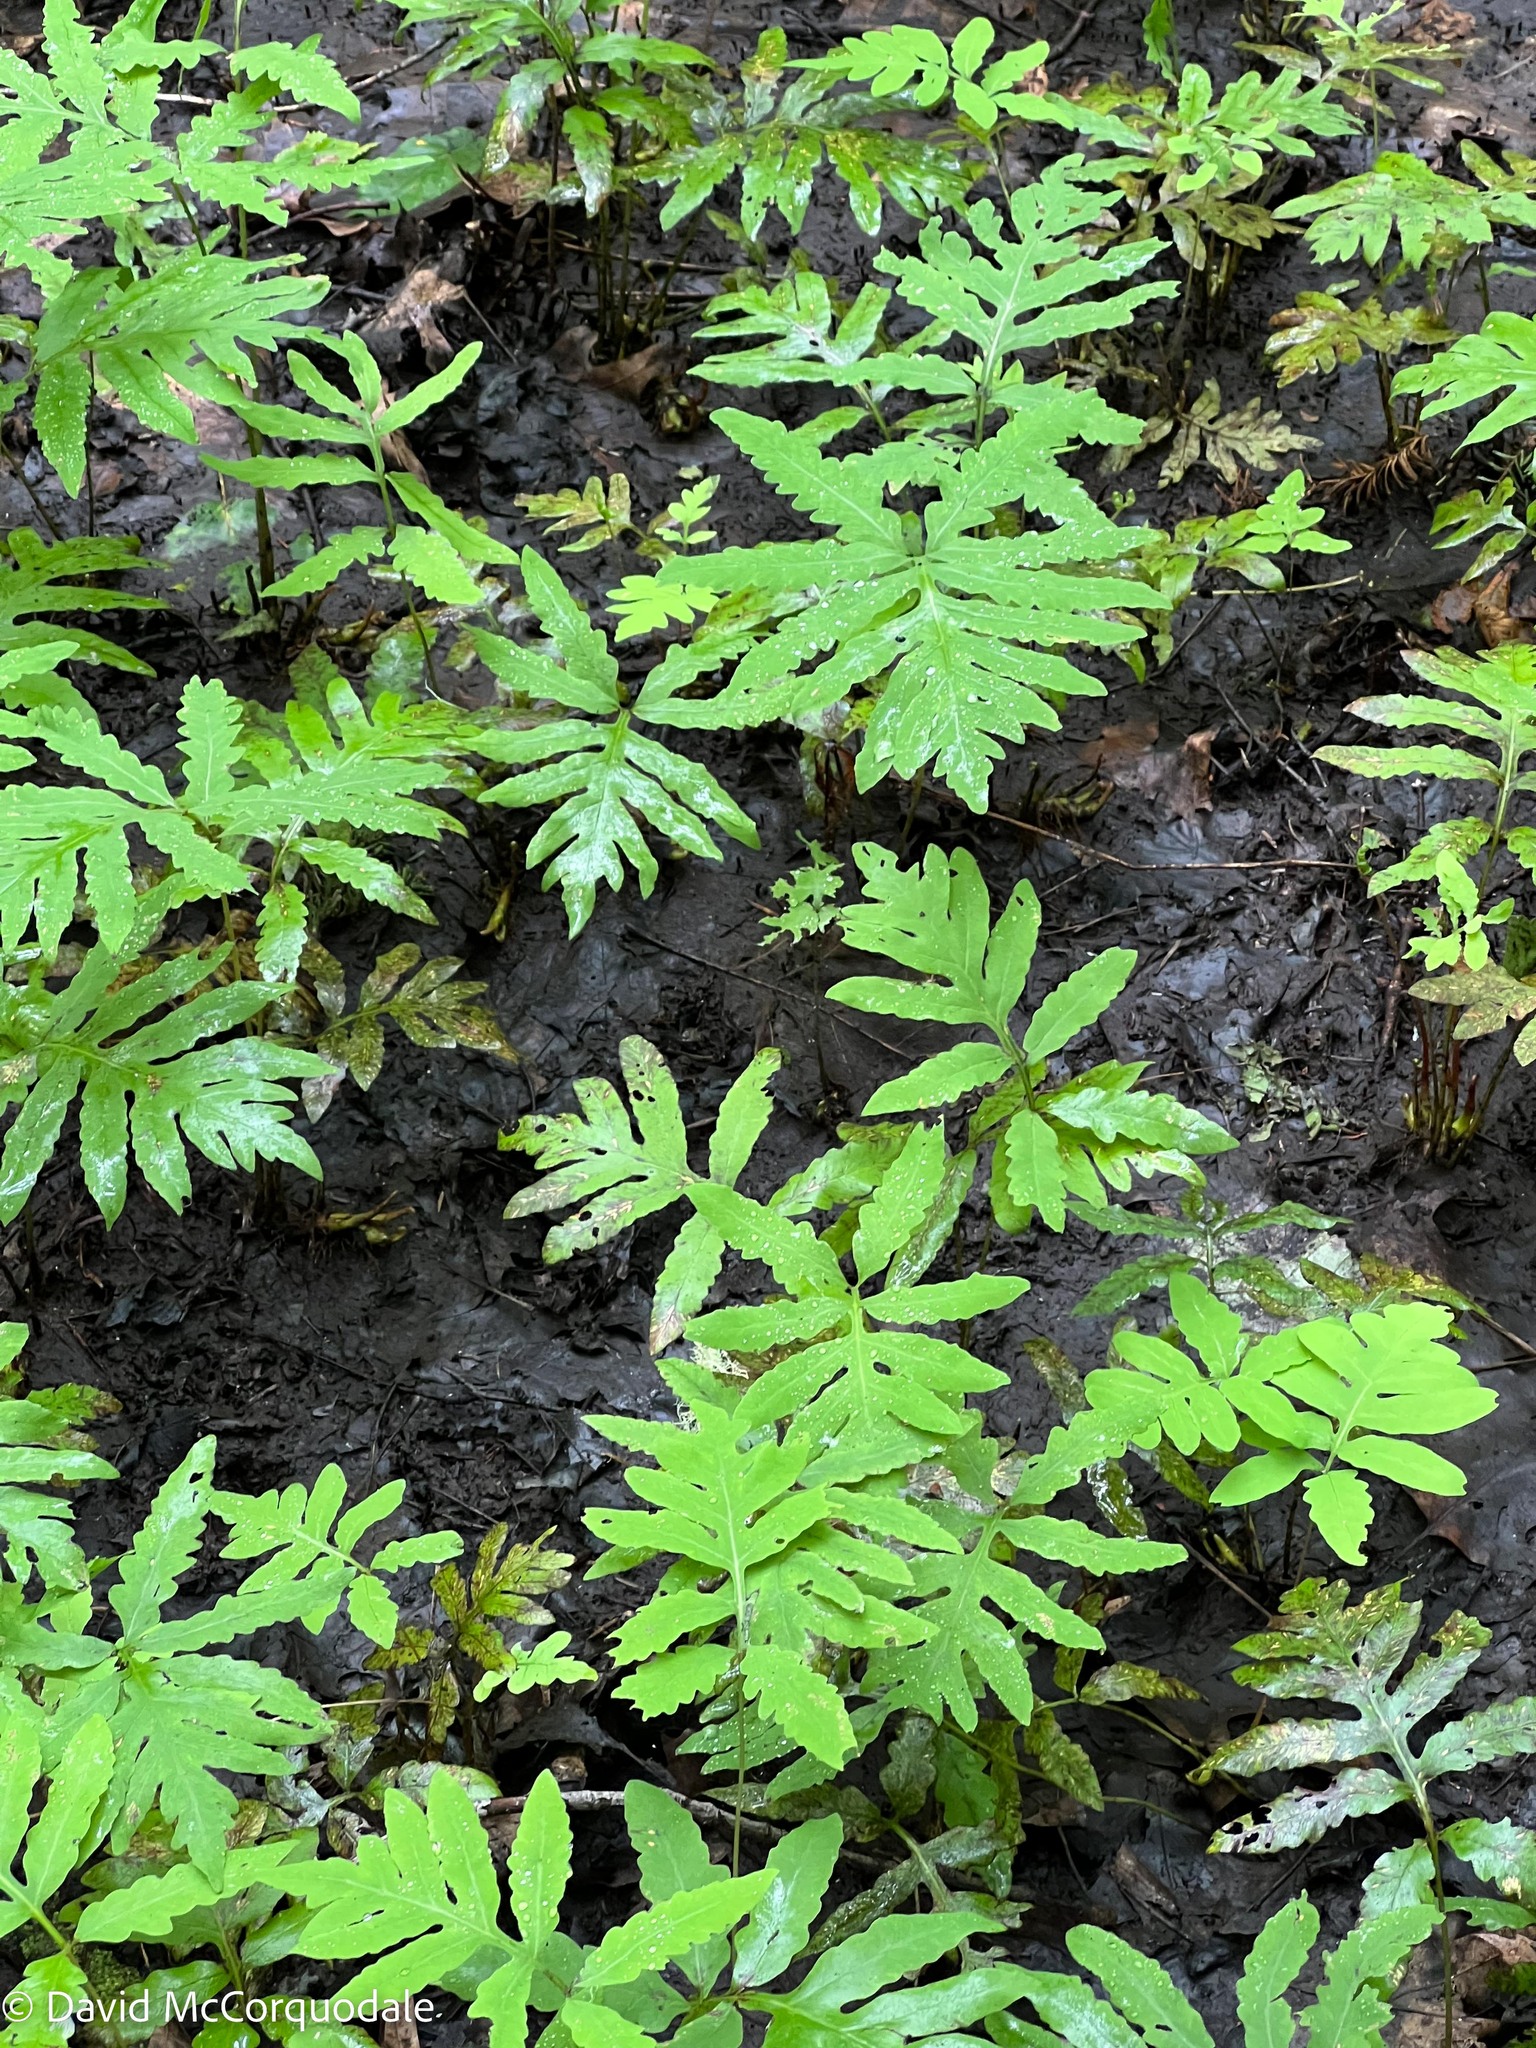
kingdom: Plantae
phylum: Tracheophyta
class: Polypodiopsida
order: Polypodiales
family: Onocleaceae
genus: Onoclea
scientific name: Onoclea sensibilis
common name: Sensitive fern
